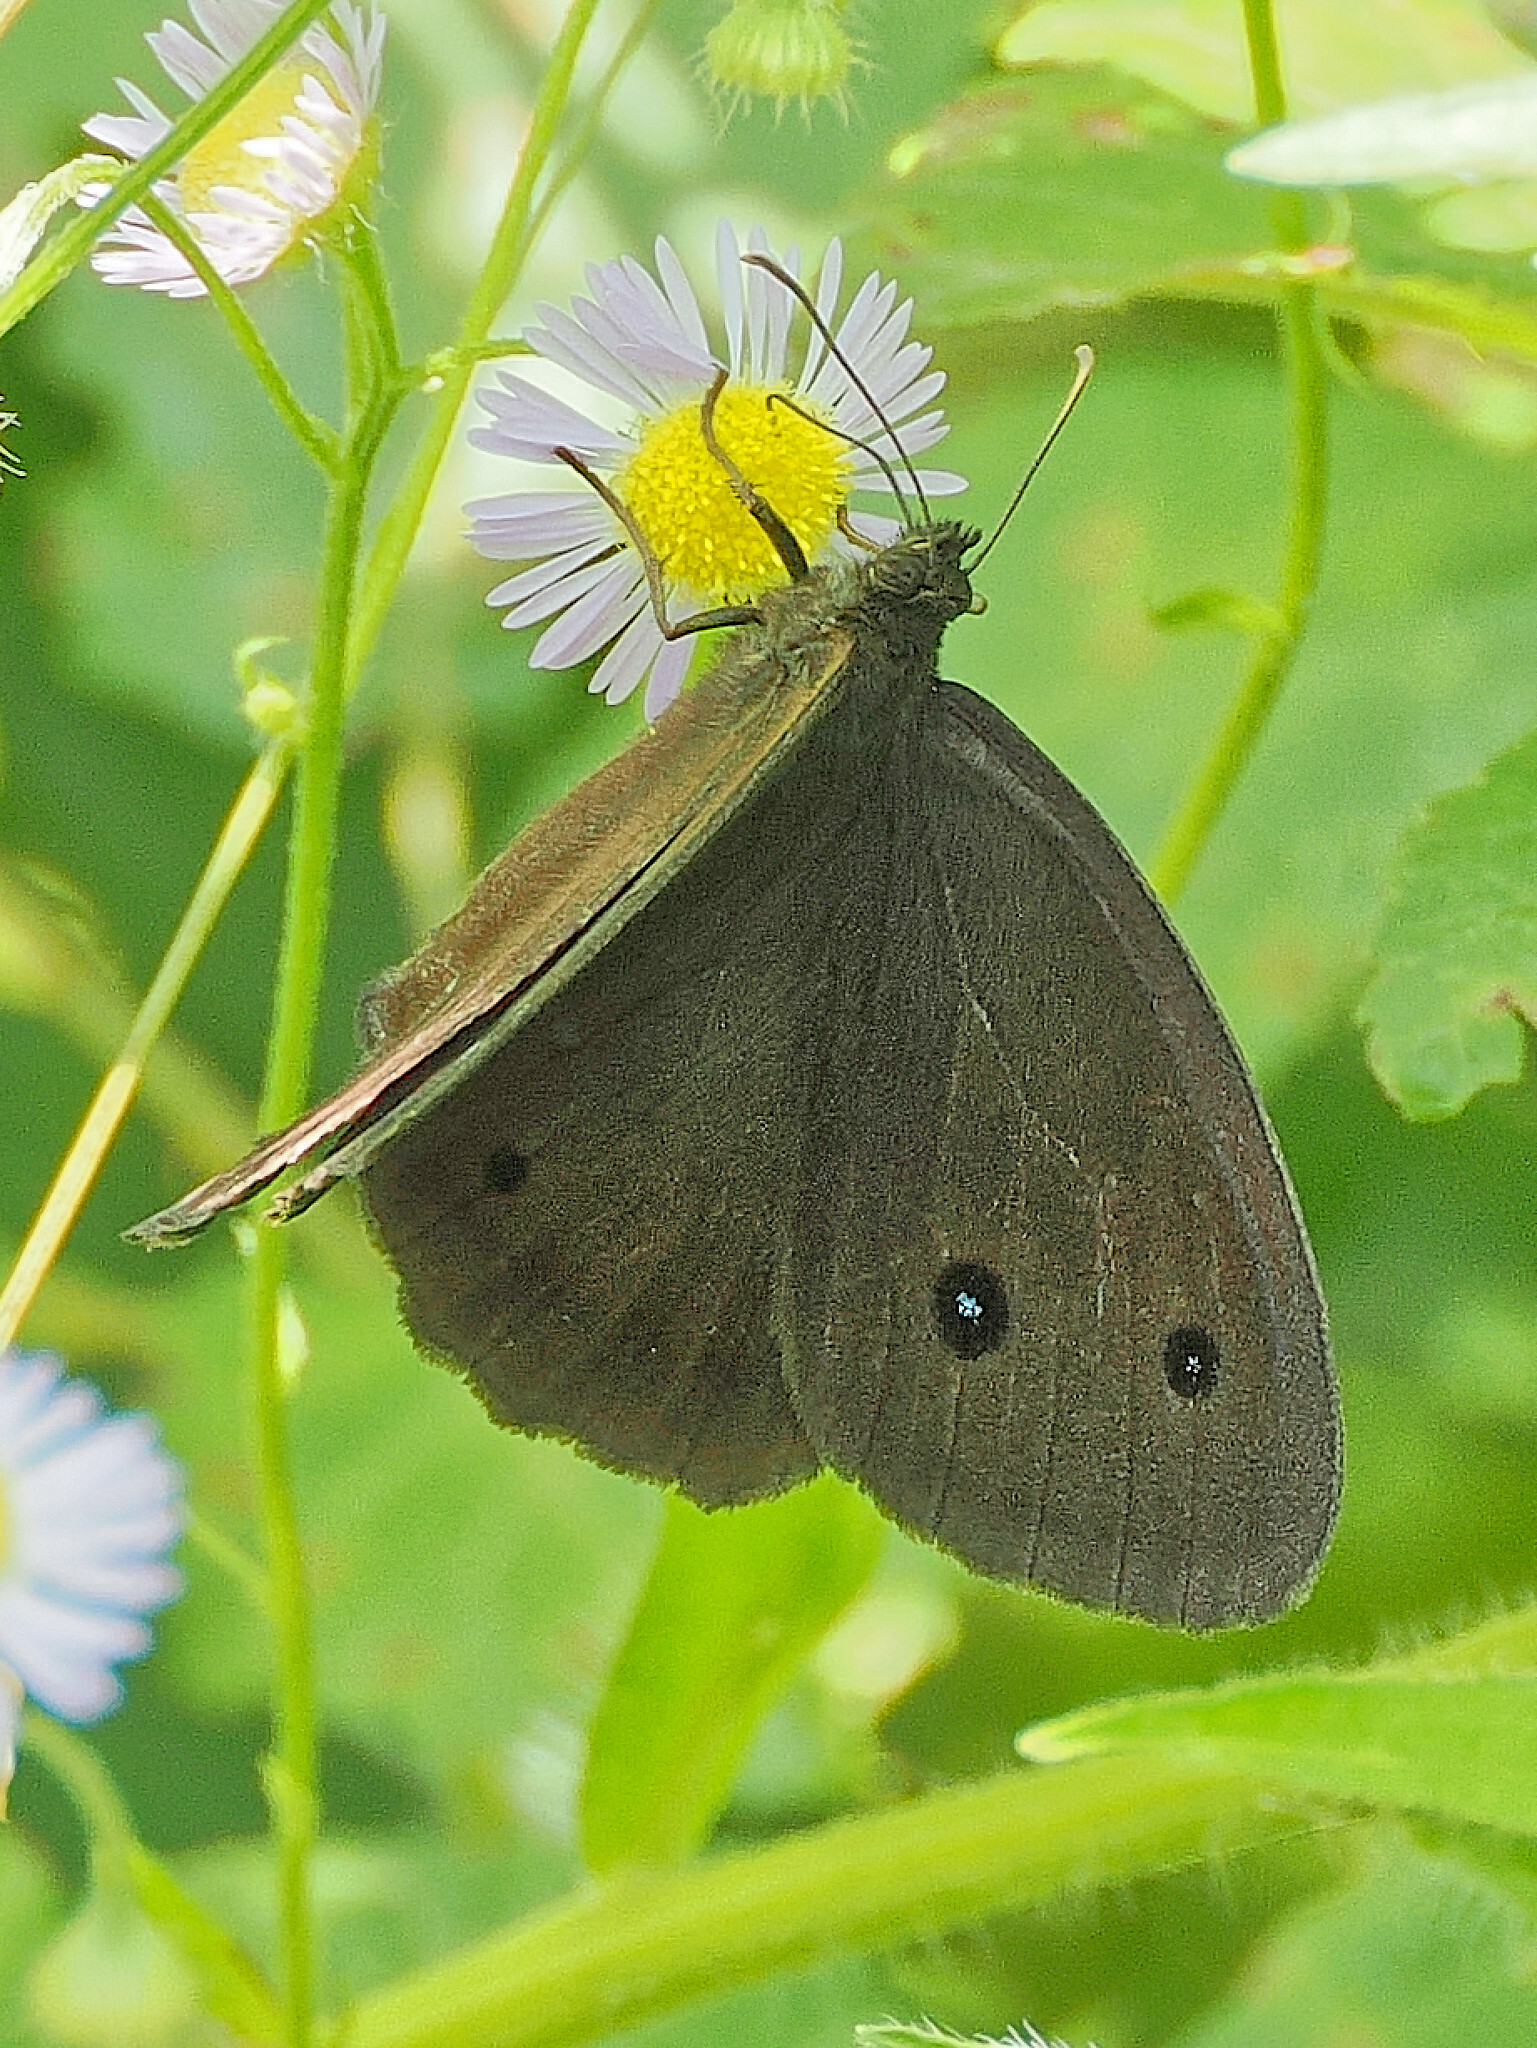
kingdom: Animalia
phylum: Arthropoda
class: Insecta
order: Lepidoptera
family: Nymphalidae
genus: Minois
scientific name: Minois dryas
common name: Dryad
